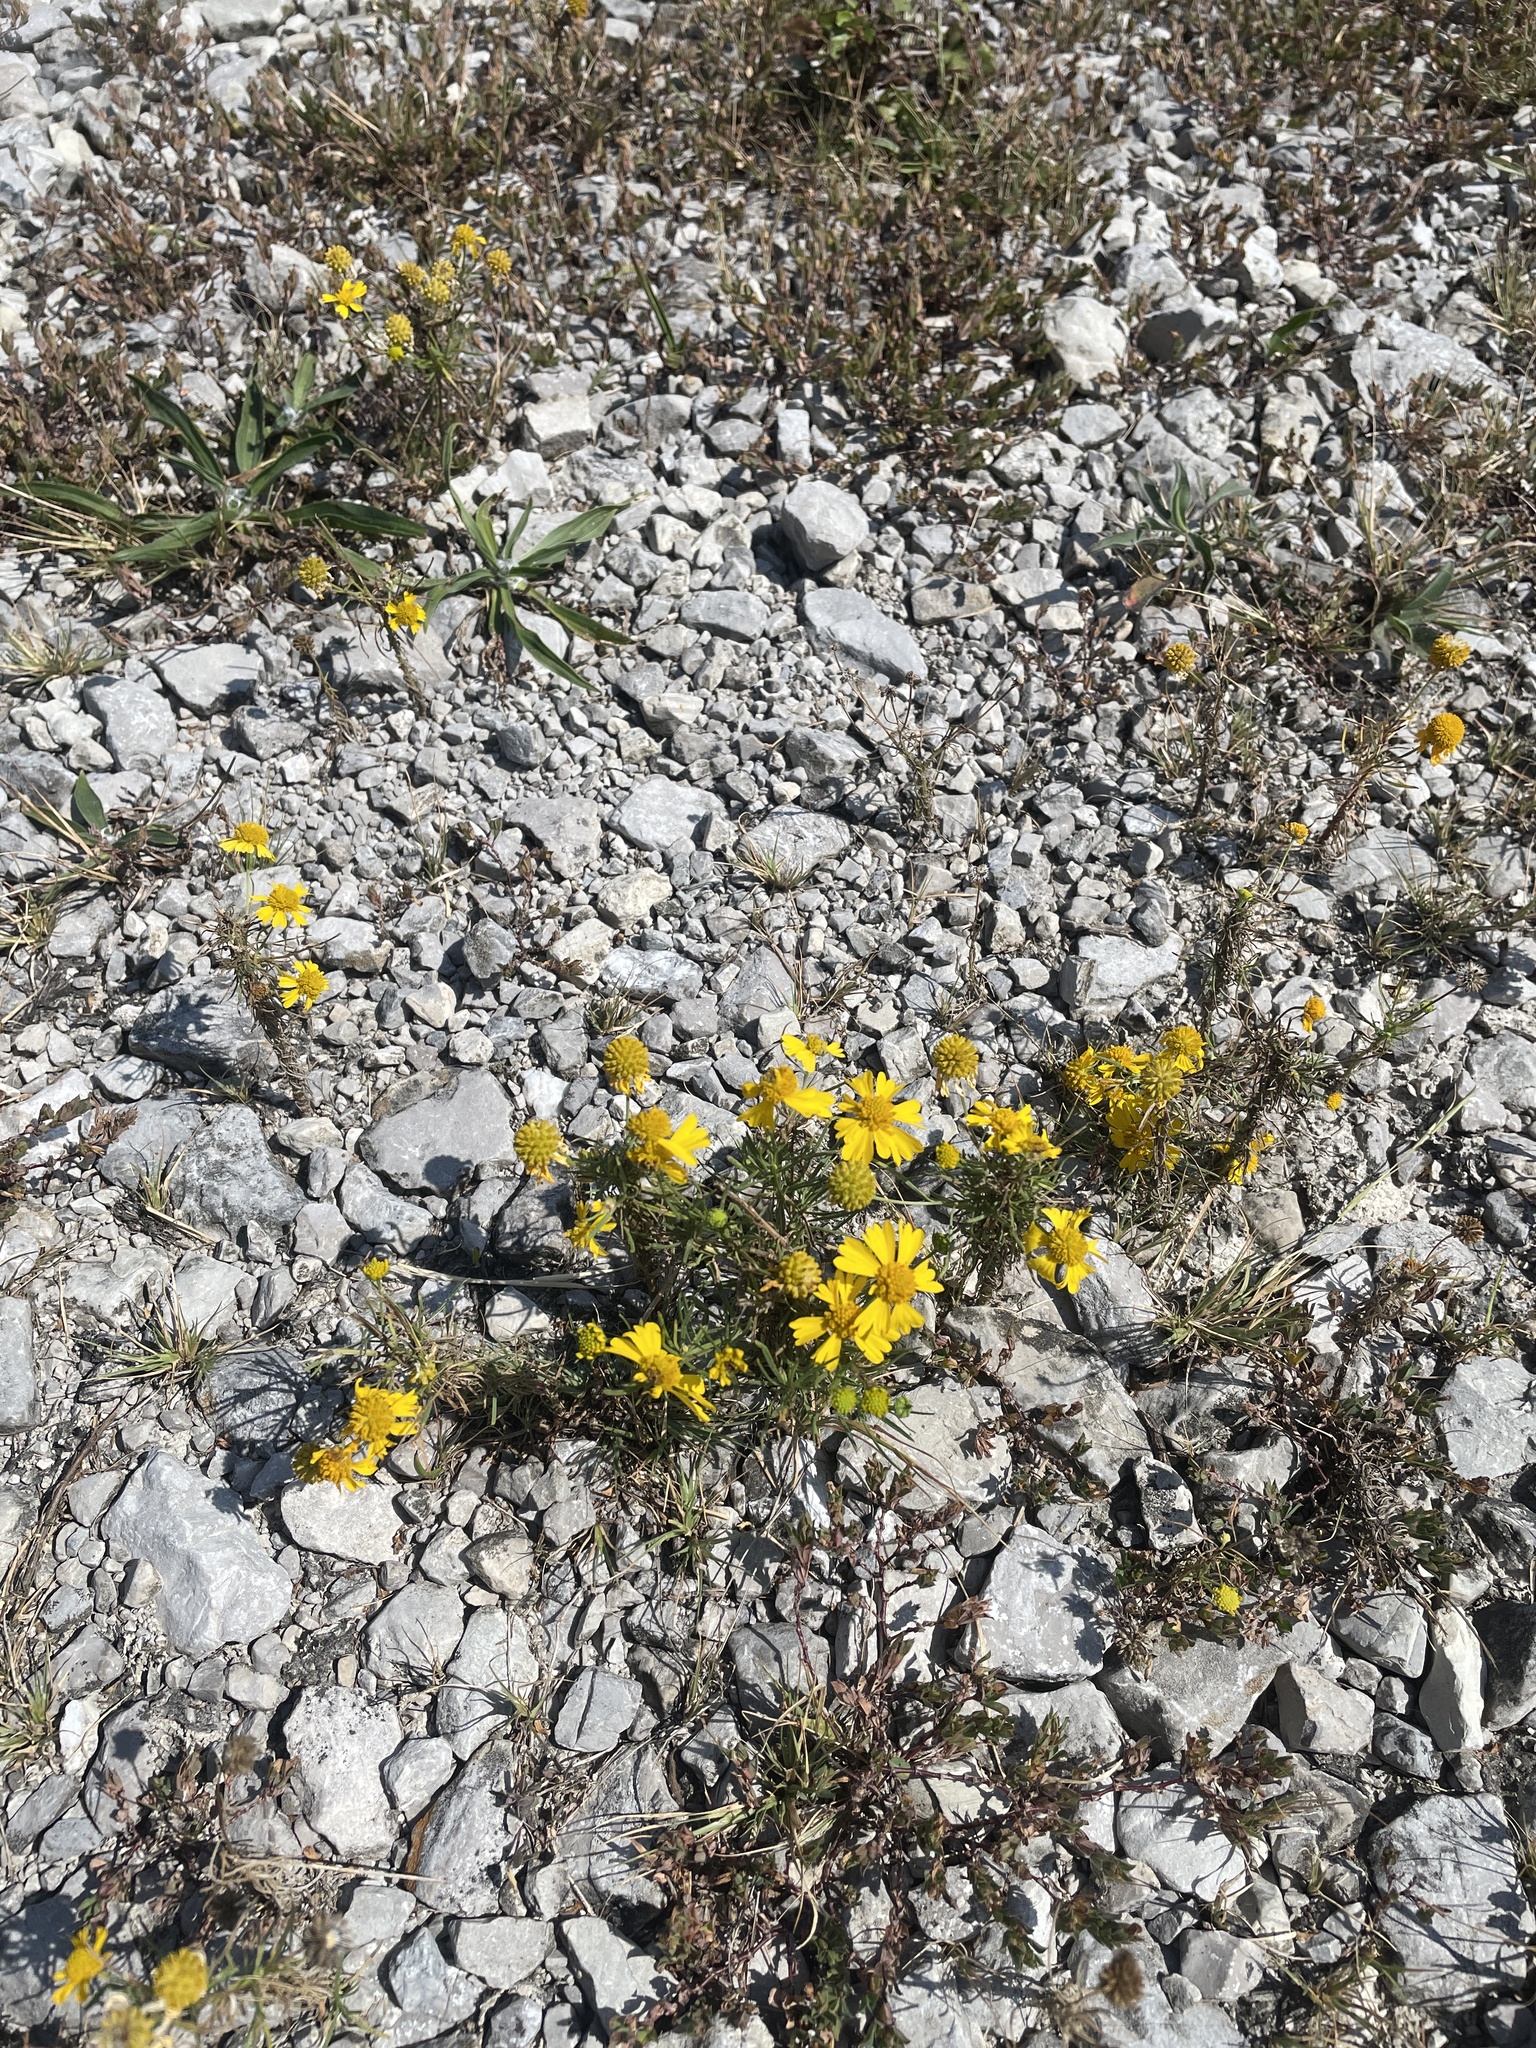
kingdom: Plantae
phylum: Tracheophyta
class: Magnoliopsida
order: Asterales
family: Asteraceae
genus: Helenium
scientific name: Helenium amarum
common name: Bitter sneezeweed
